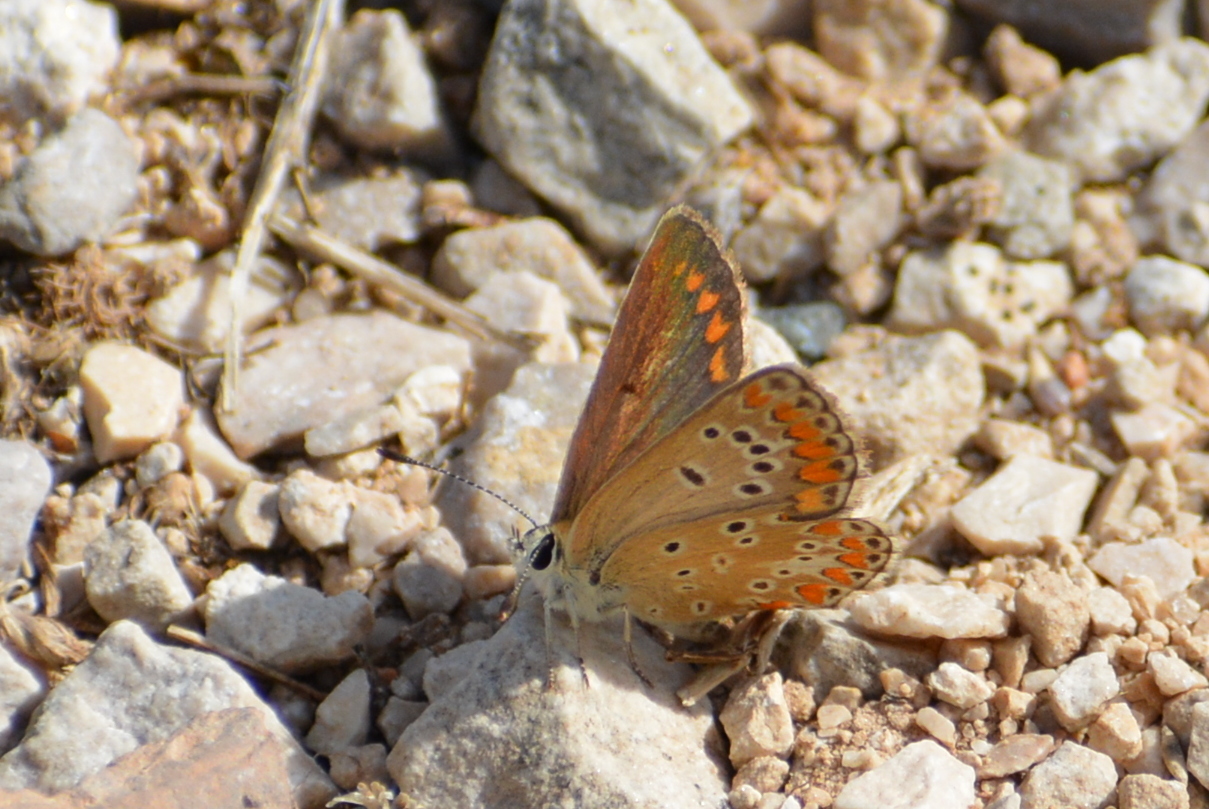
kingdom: Animalia
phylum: Arthropoda
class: Insecta
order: Lepidoptera
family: Lycaenidae
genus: Aricia
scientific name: Aricia agestis
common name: Brown argus
